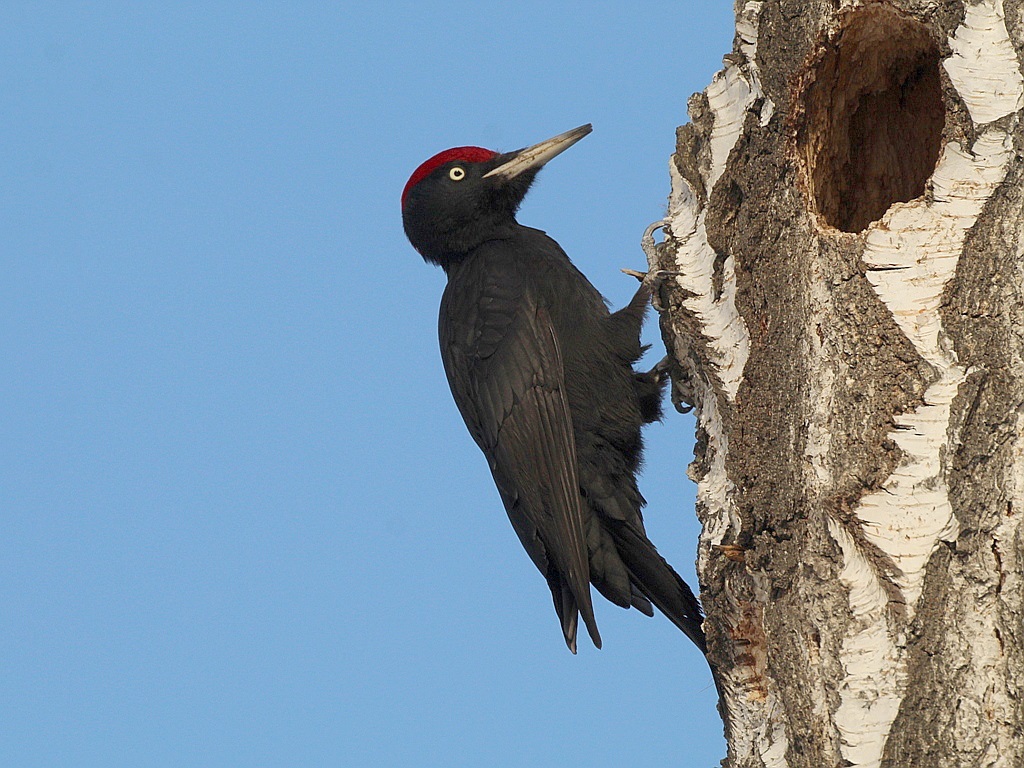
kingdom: Animalia
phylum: Chordata
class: Aves
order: Piciformes
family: Picidae
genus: Dryocopus
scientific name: Dryocopus martius
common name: Black woodpecker
